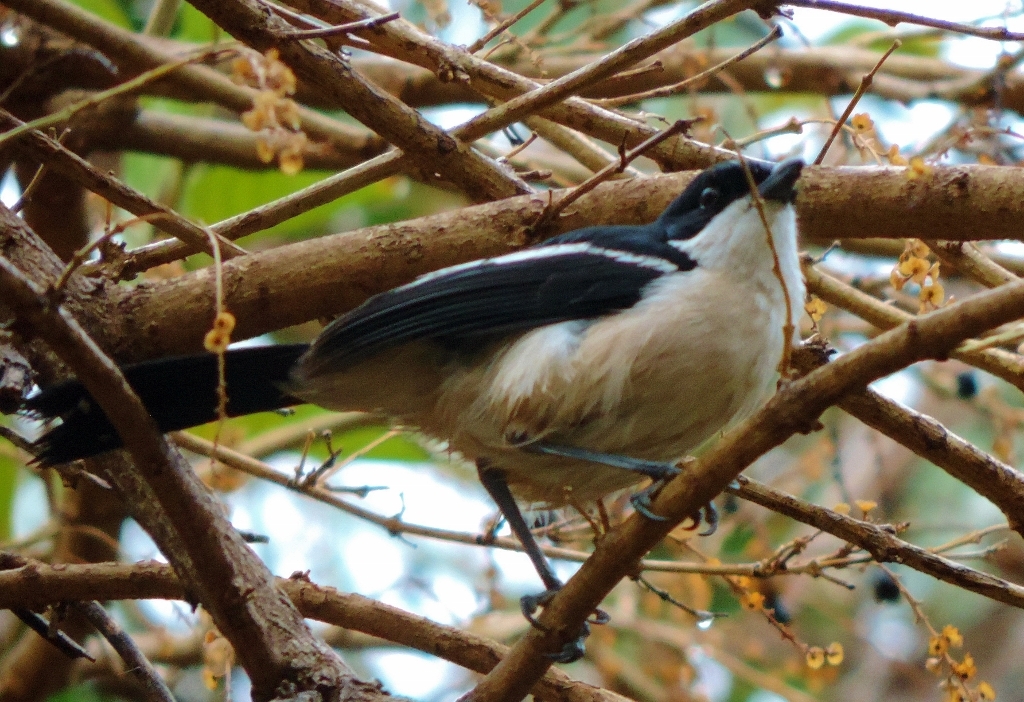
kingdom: Animalia
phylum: Chordata
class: Aves
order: Passeriformes
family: Malaconotidae
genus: Laniarius
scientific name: Laniarius major
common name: Tropical boubou
